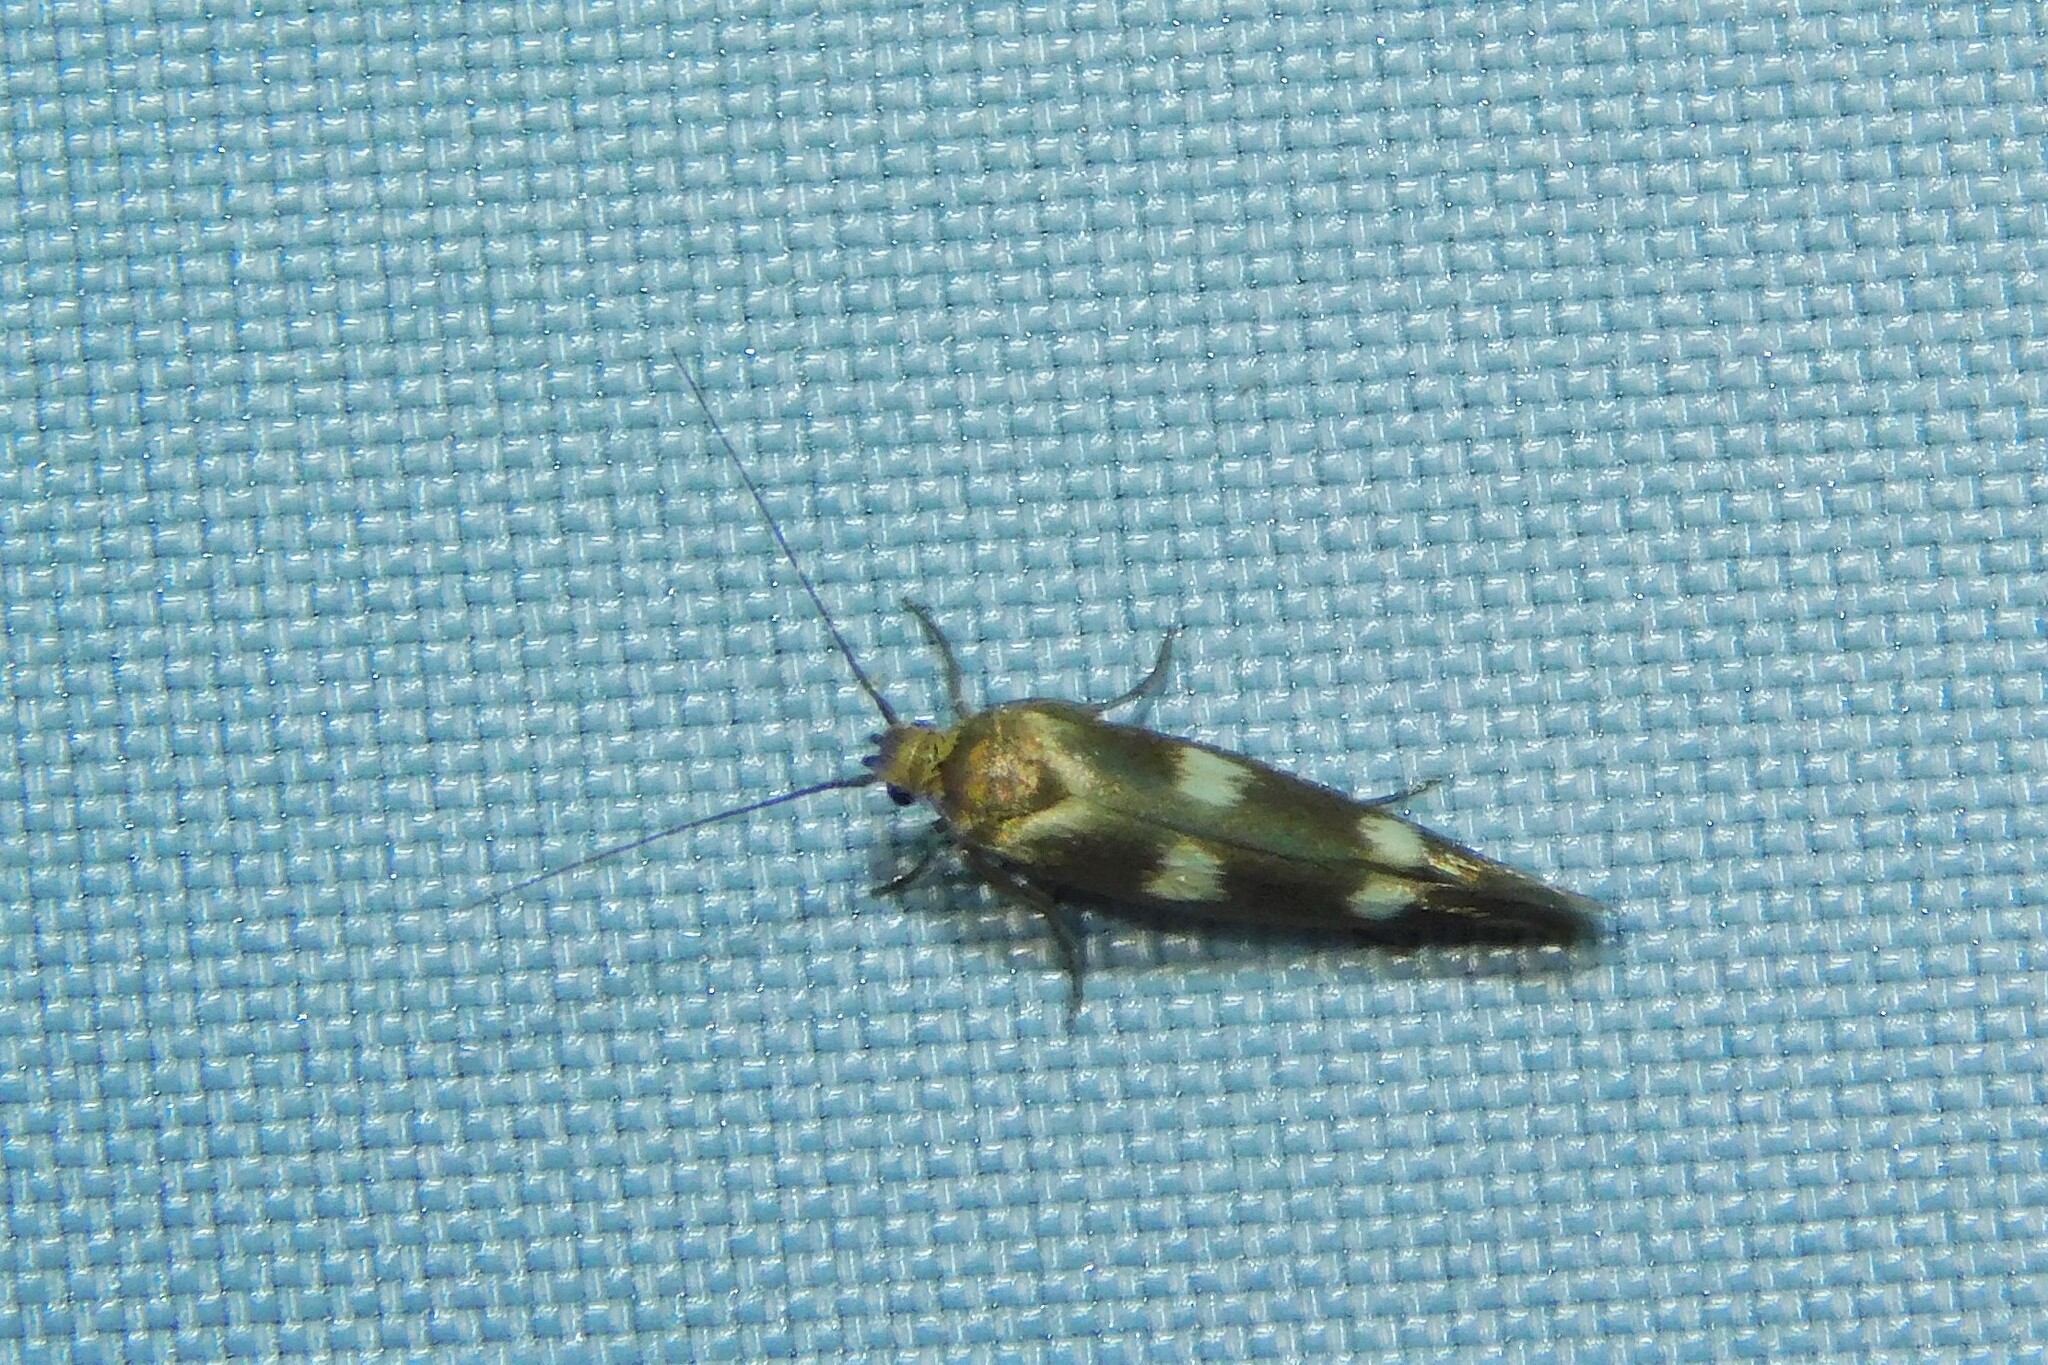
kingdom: Animalia
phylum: Arthropoda
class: Insecta
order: Lepidoptera
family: Scythrididae
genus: Scythris
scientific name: Scythris scopolella
